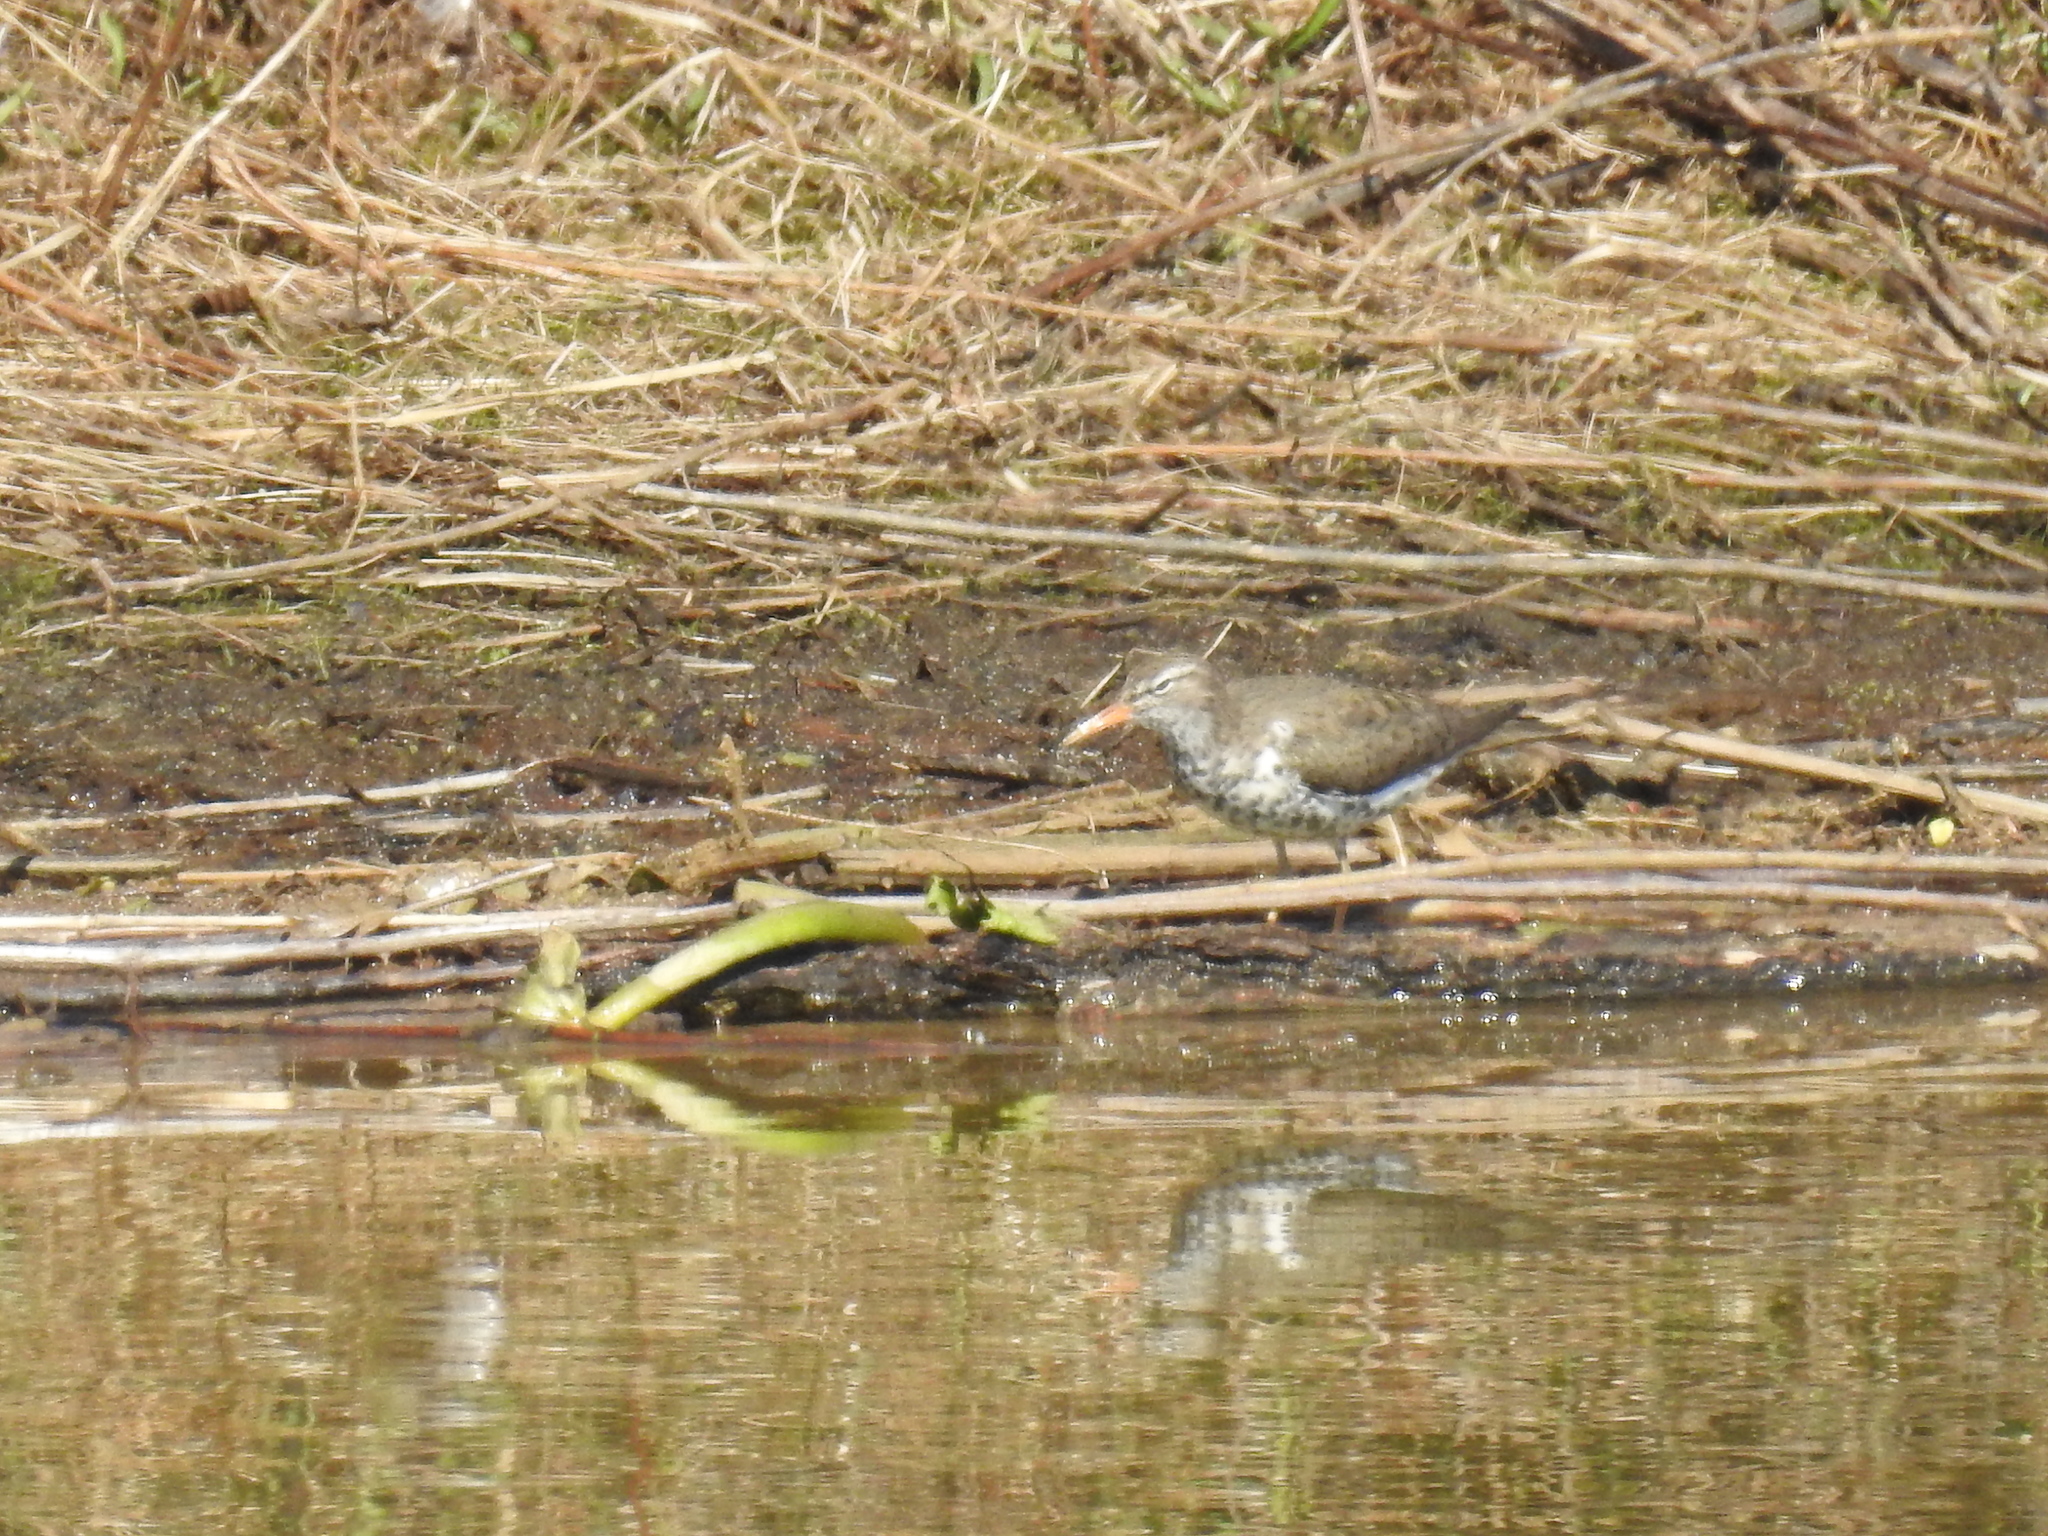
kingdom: Animalia
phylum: Chordata
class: Aves
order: Charadriiformes
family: Scolopacidae
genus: Actitis
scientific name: Actitis macularius
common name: Spotted sandpiper
